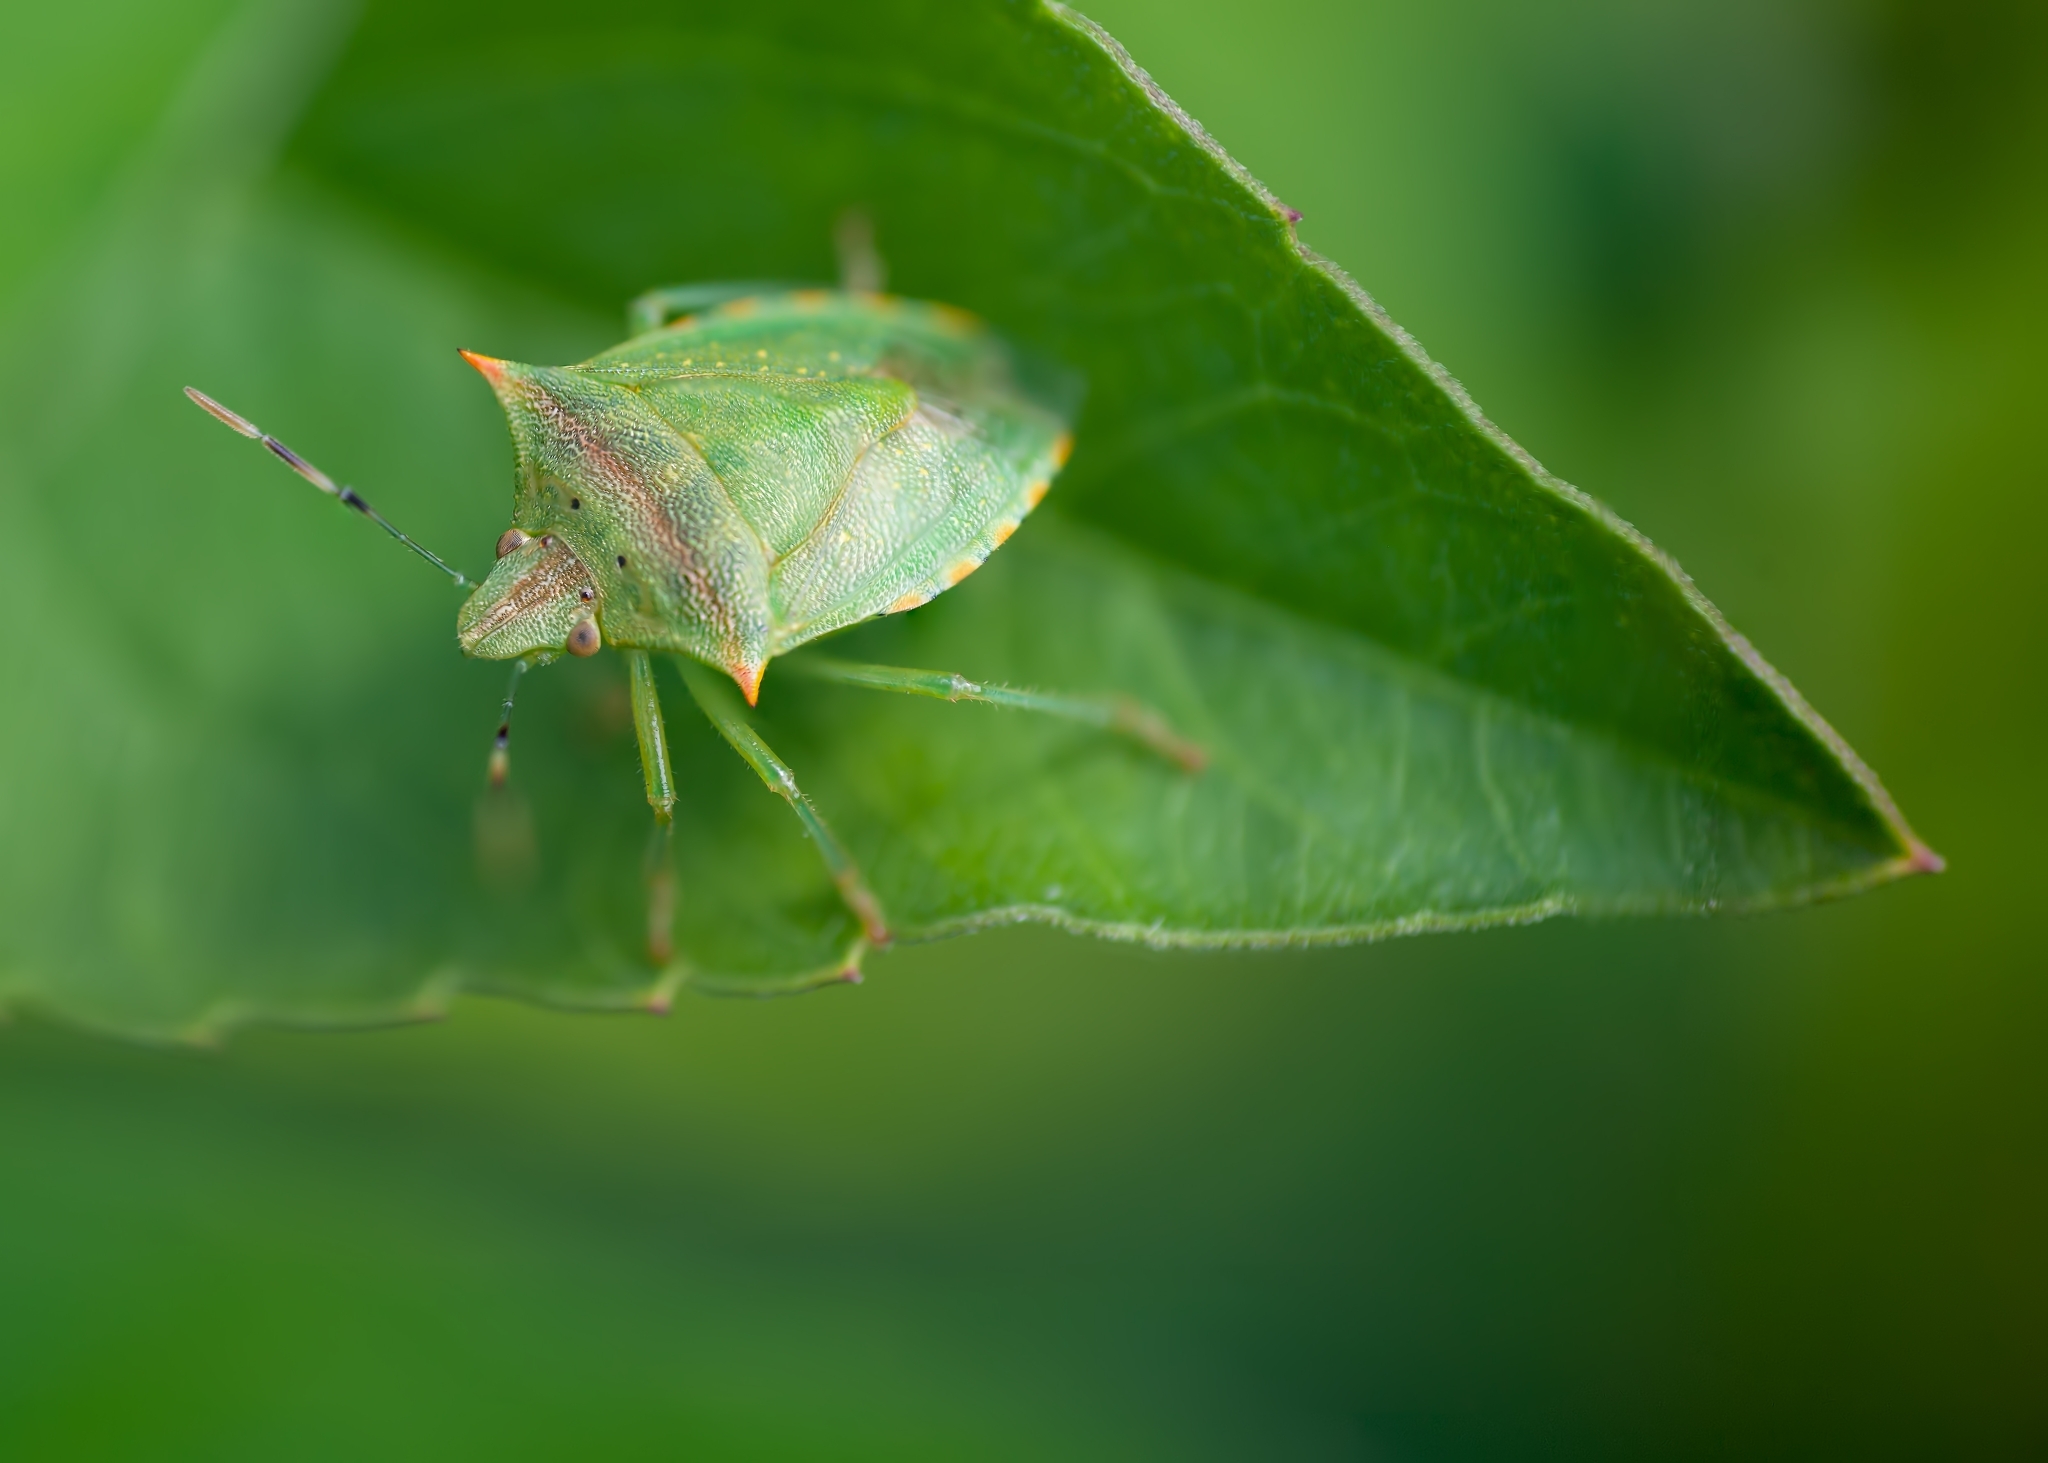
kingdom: Animalia
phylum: Arthropoda
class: Insecta
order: Hemiptera
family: Pentatomidae
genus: Thyanta
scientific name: Thyanta perditor
